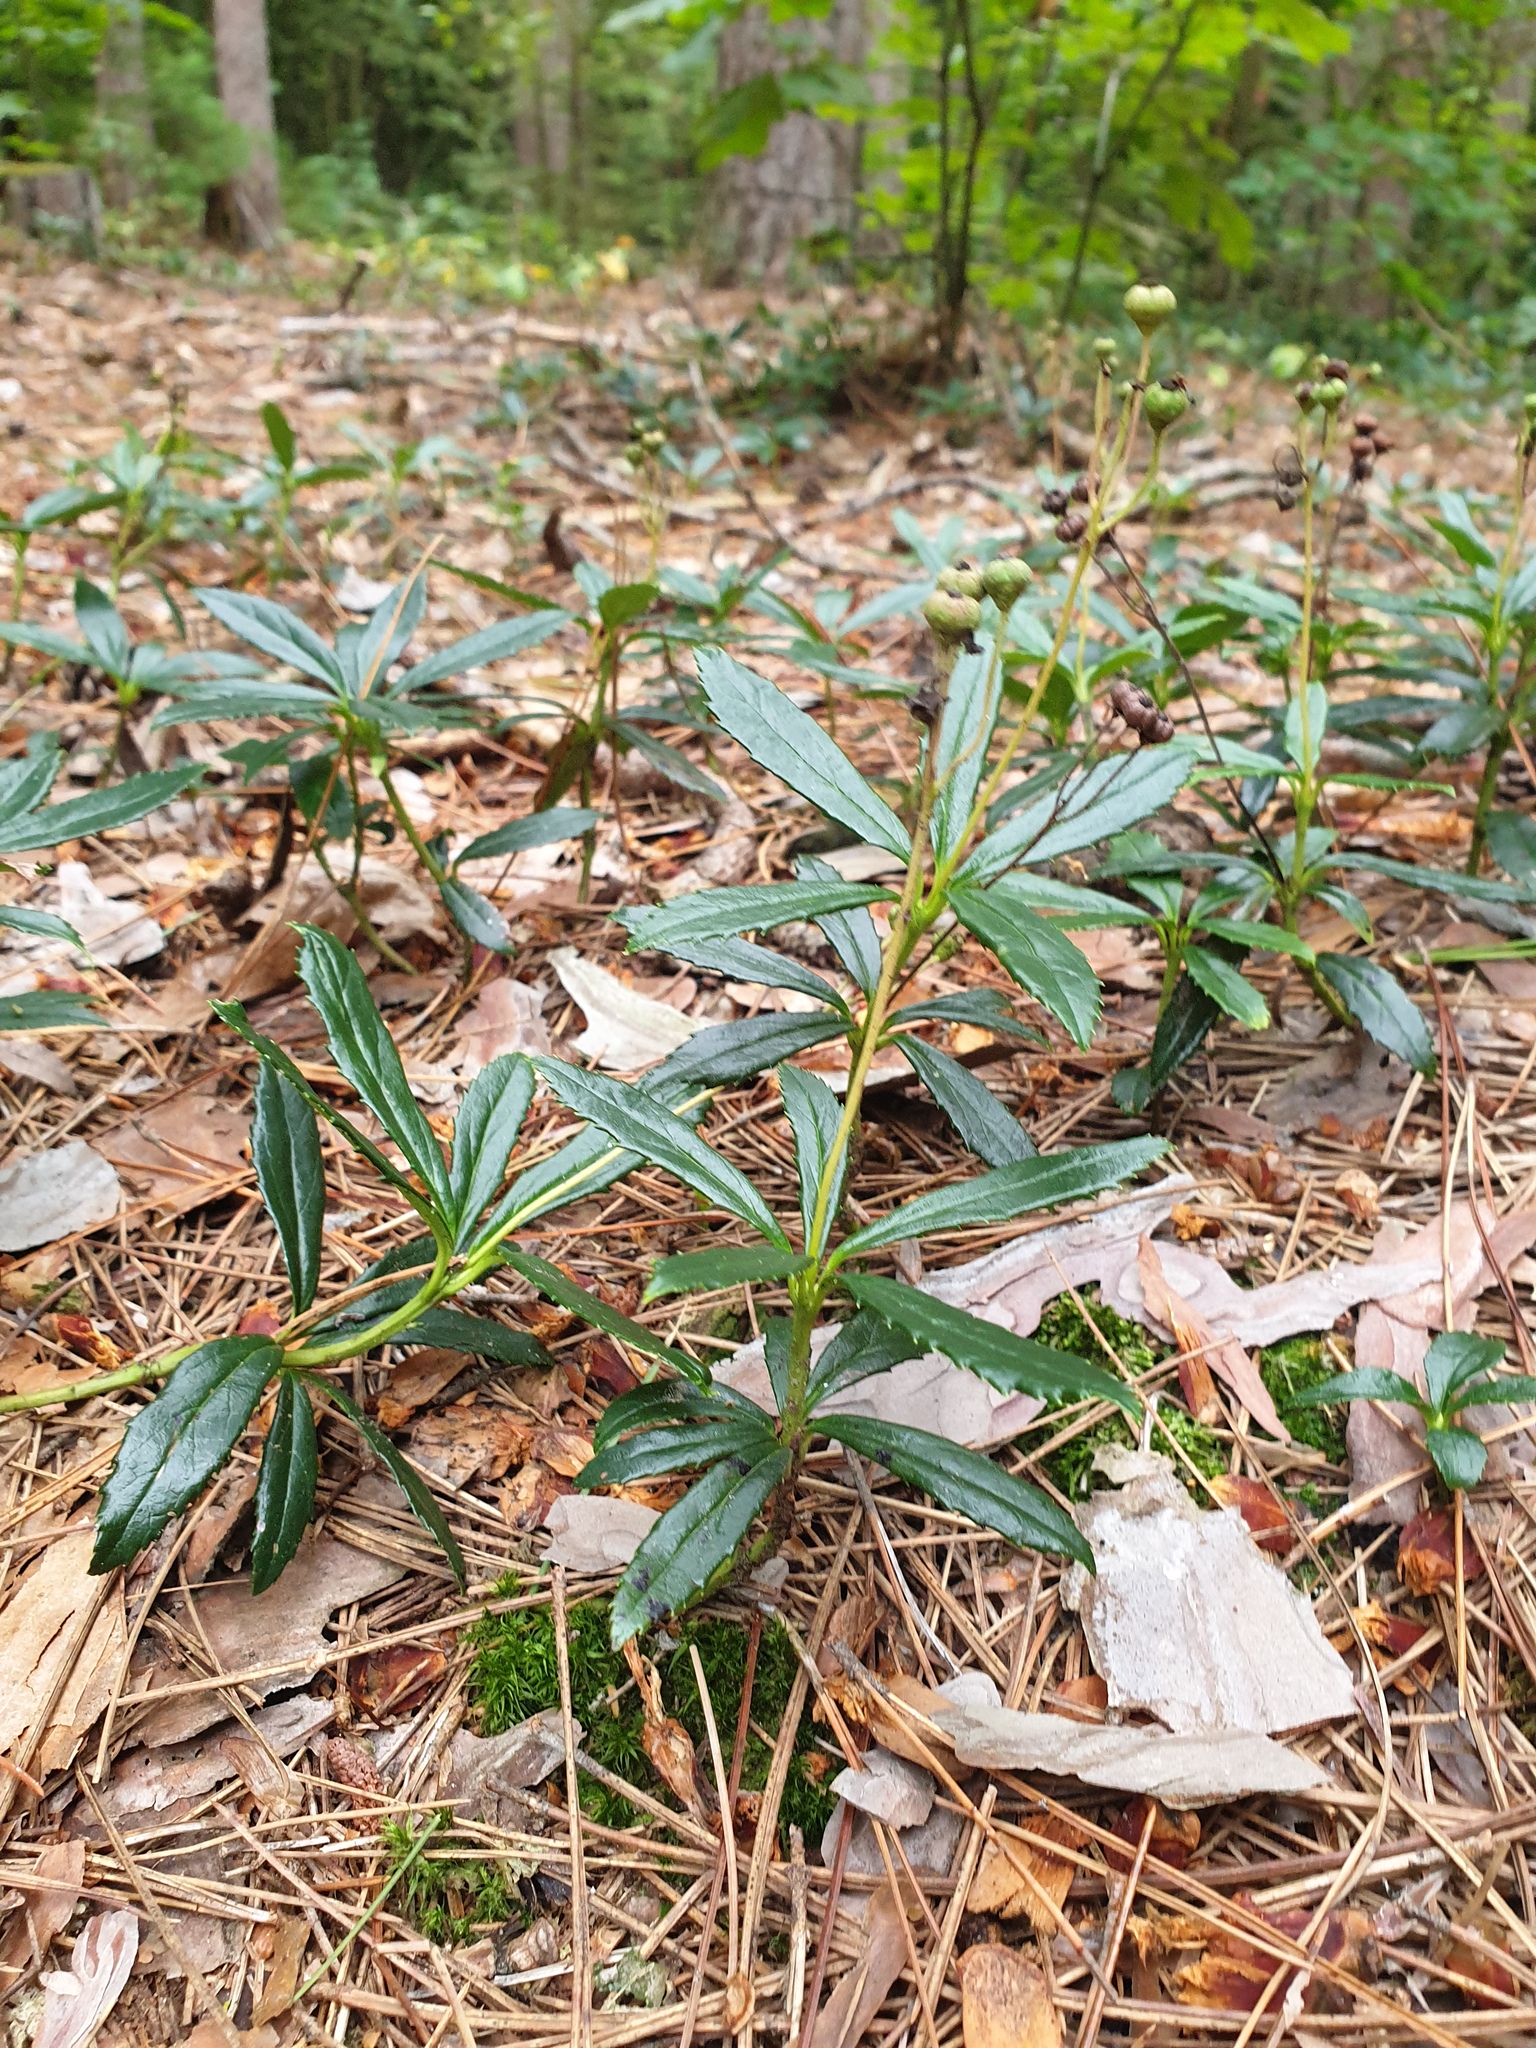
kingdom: Plantae
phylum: Tracheophyta
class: Magnoliopsida
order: Ericales
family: Ericaceae
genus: Chimaphila
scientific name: Chimaphila umbellata
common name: Pipsissewa
